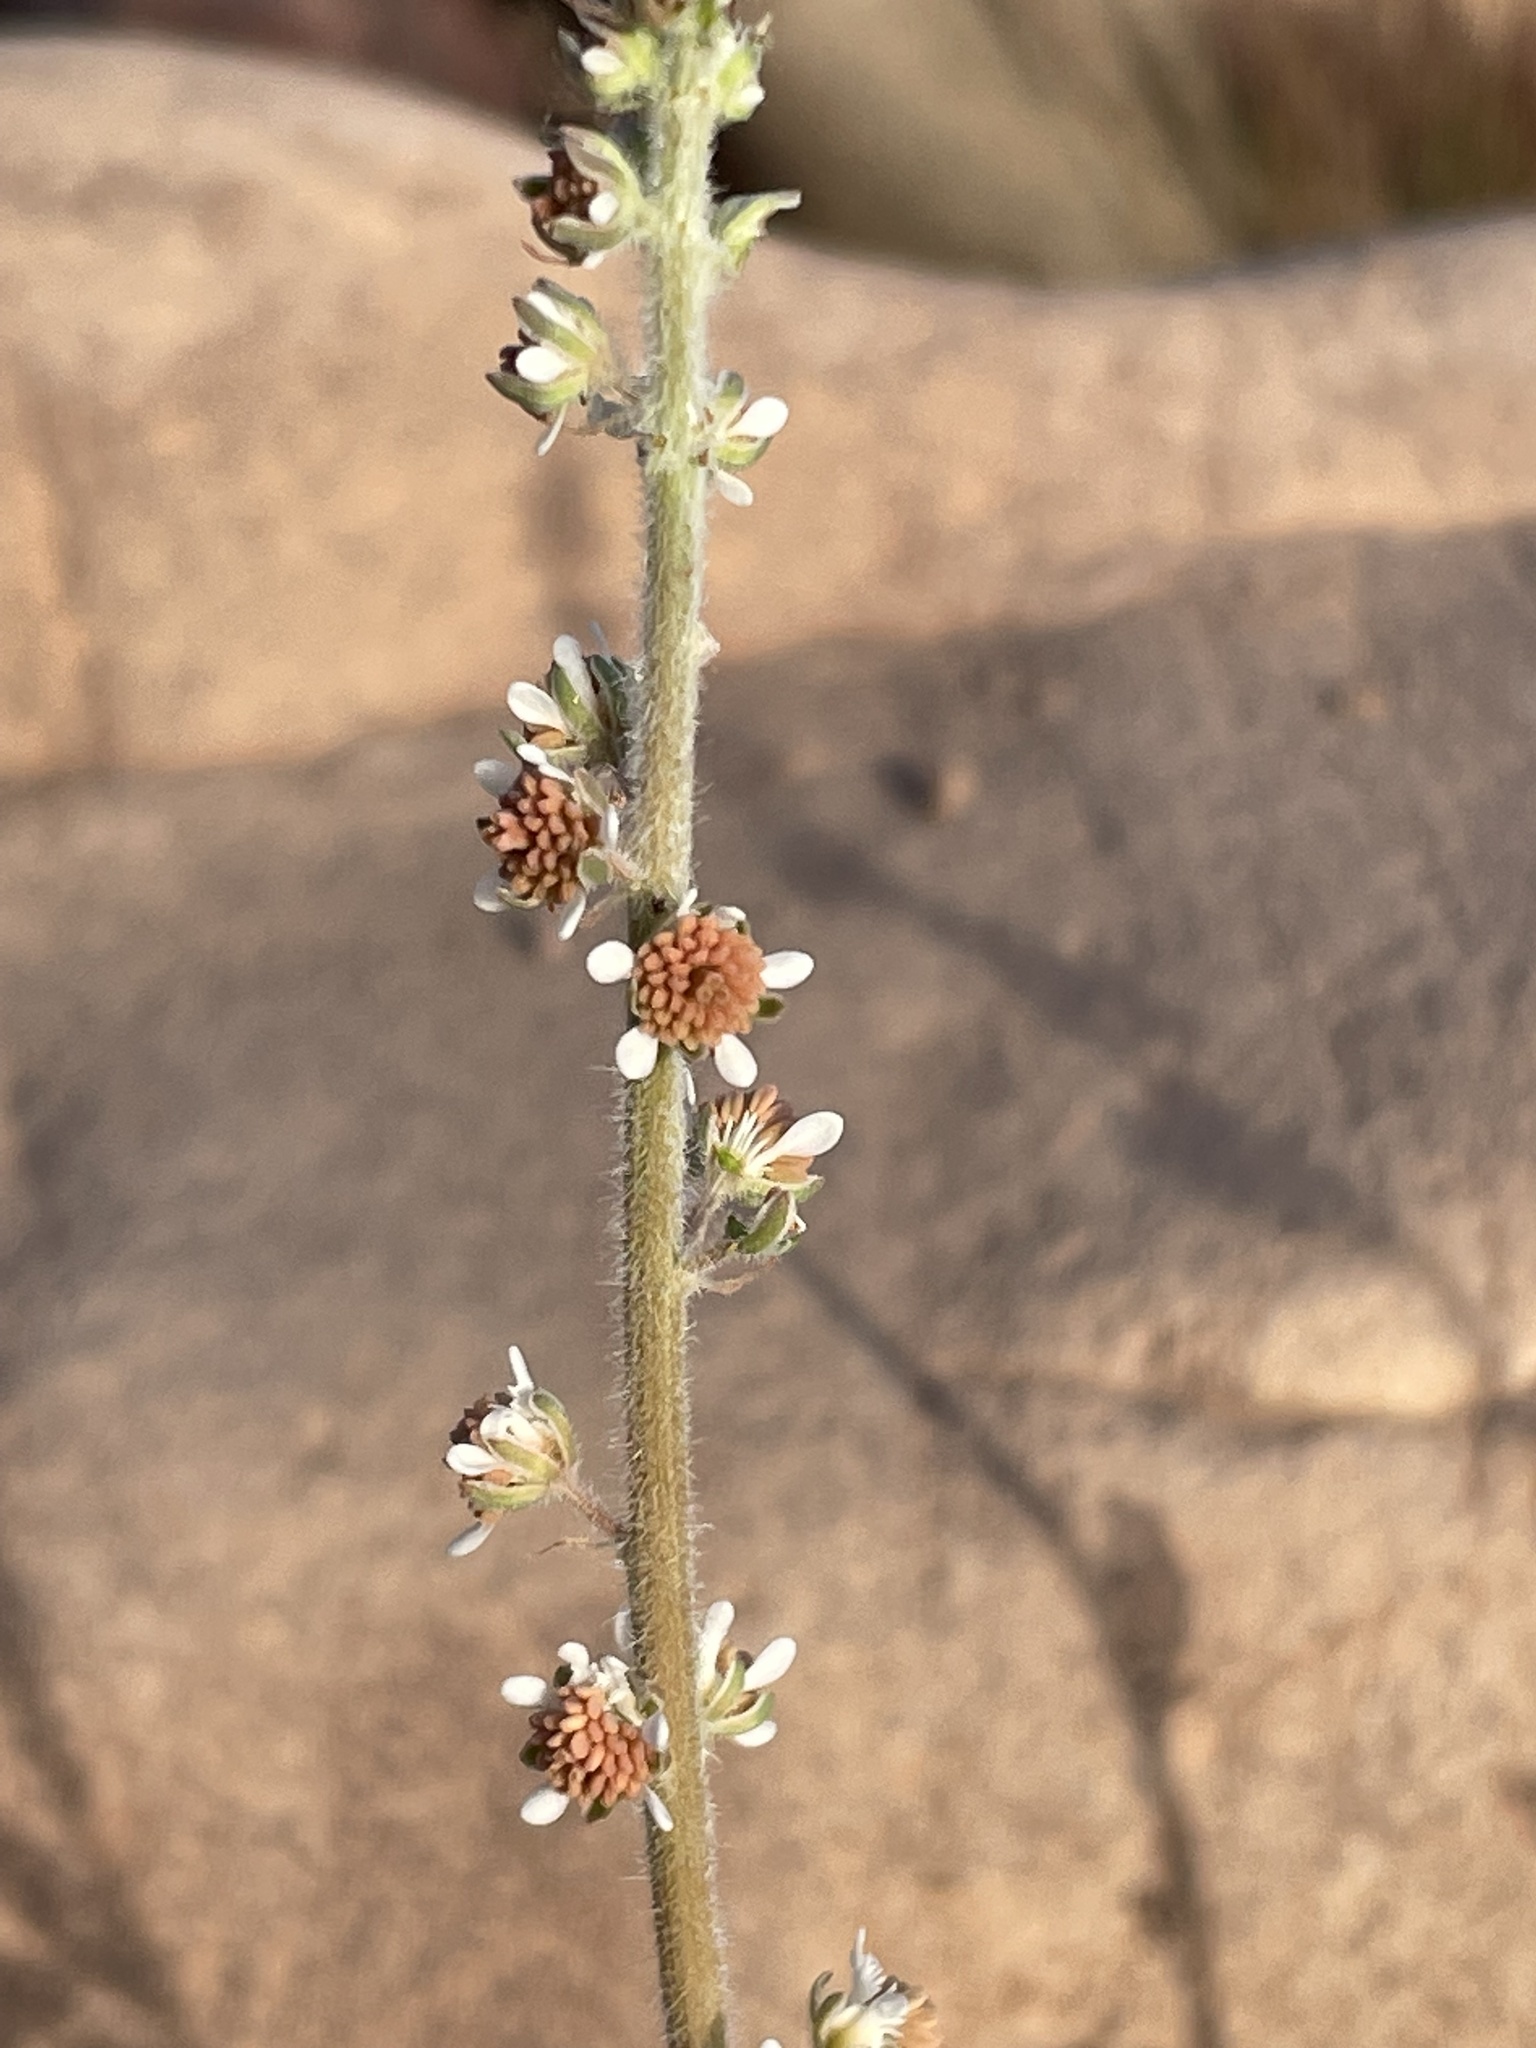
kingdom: Plantae
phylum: Tracheophyta
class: Magnoliopsida
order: Brassicales
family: Resedaceae
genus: Reseda
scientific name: Reseda villosa
